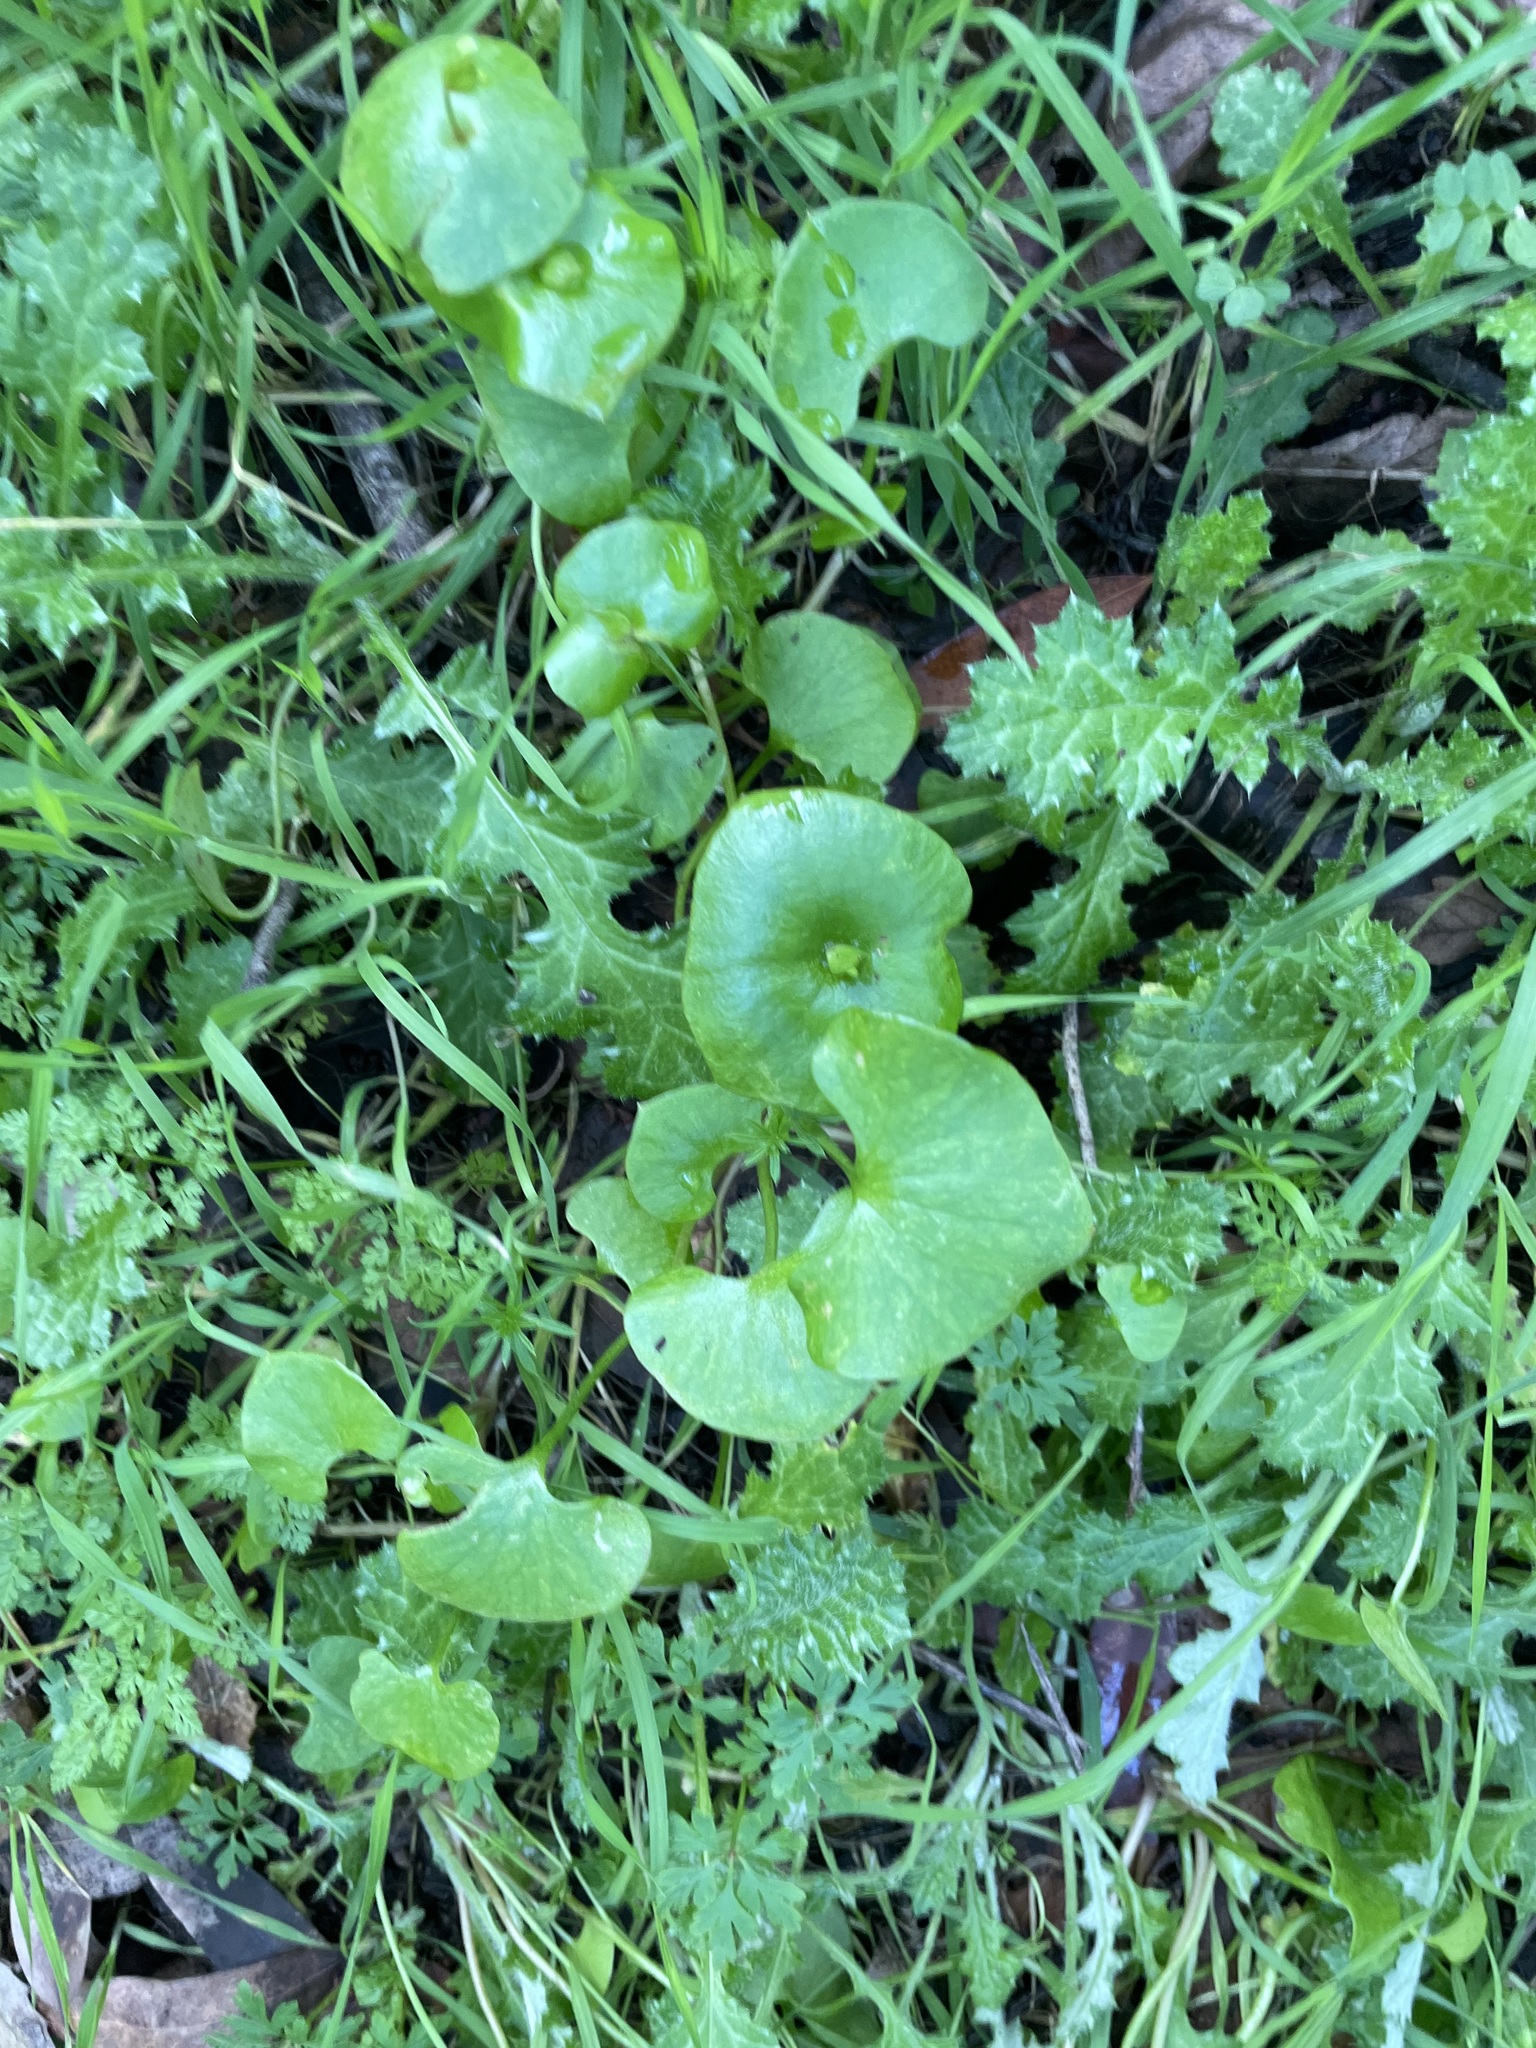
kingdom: Plantae
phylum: Tracheophyta
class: Magnoliopsida
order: Caryophyllales
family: Montiaceae
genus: Claytonia
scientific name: Claytonia perfoliata
